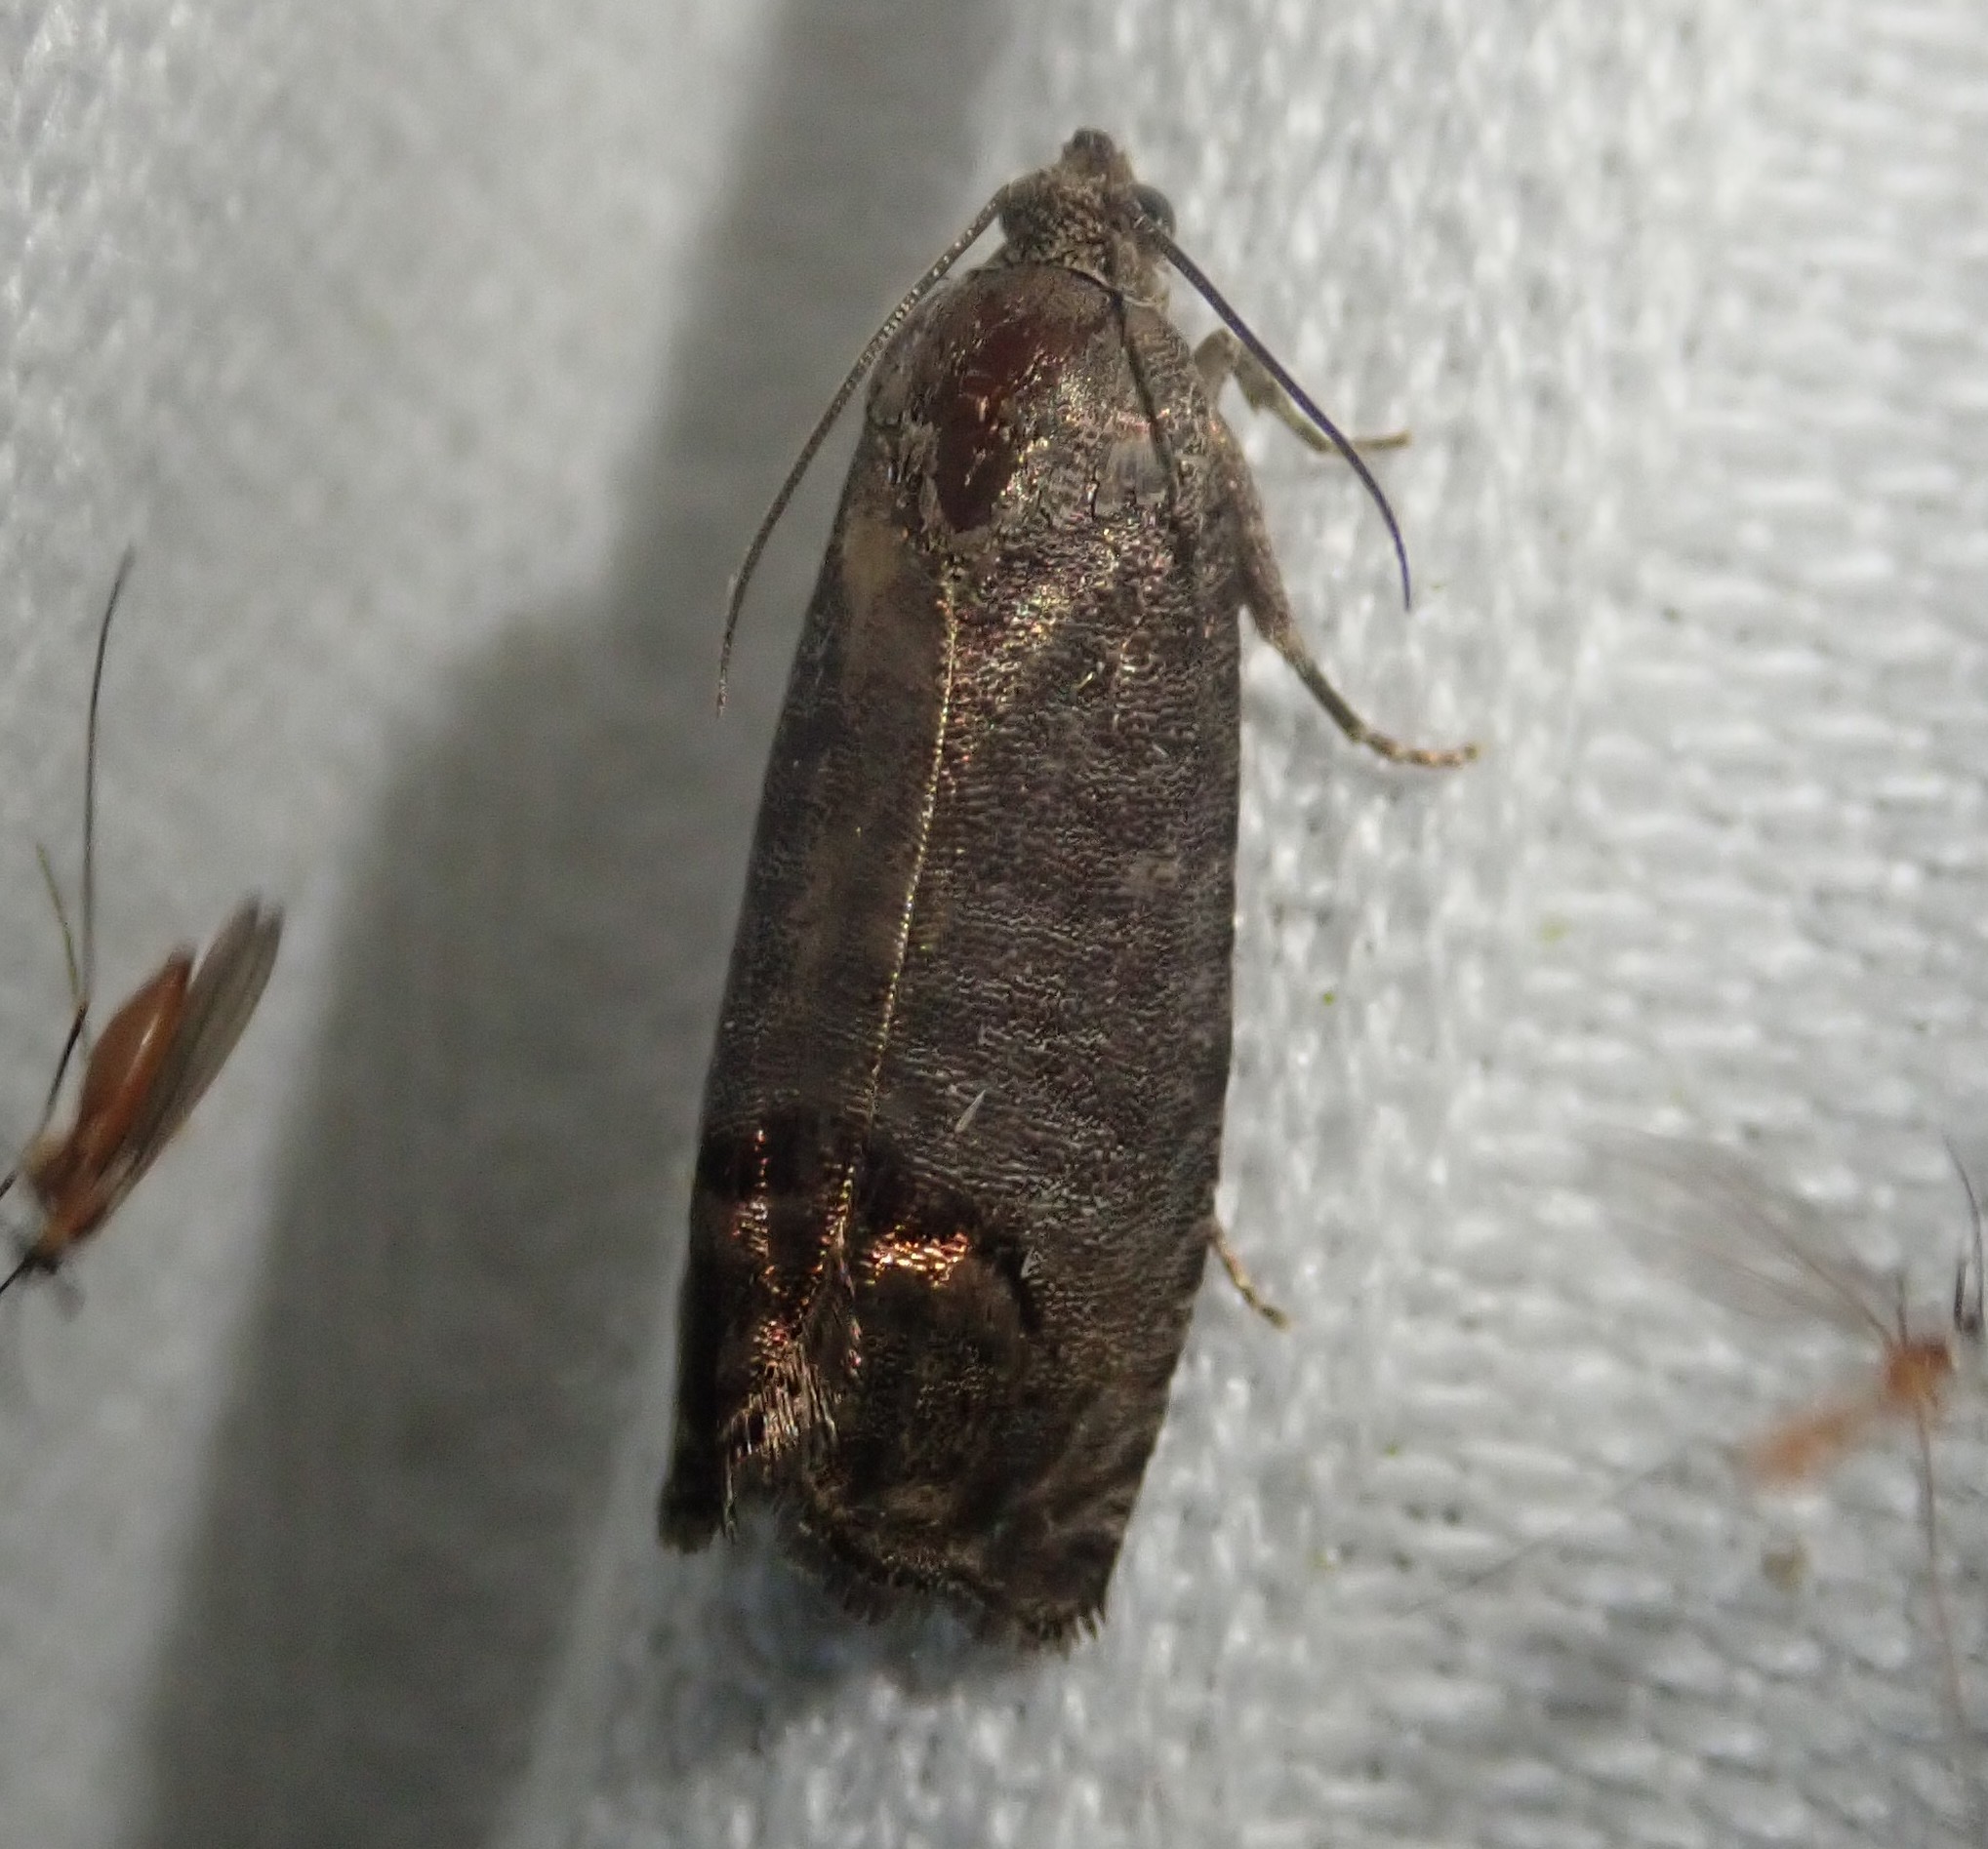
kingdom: Animalia
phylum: Arthropoda
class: Insecta
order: Lepidoptera
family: Tortricidae
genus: Cydia
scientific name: Cydia pomonella
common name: Codling moth
